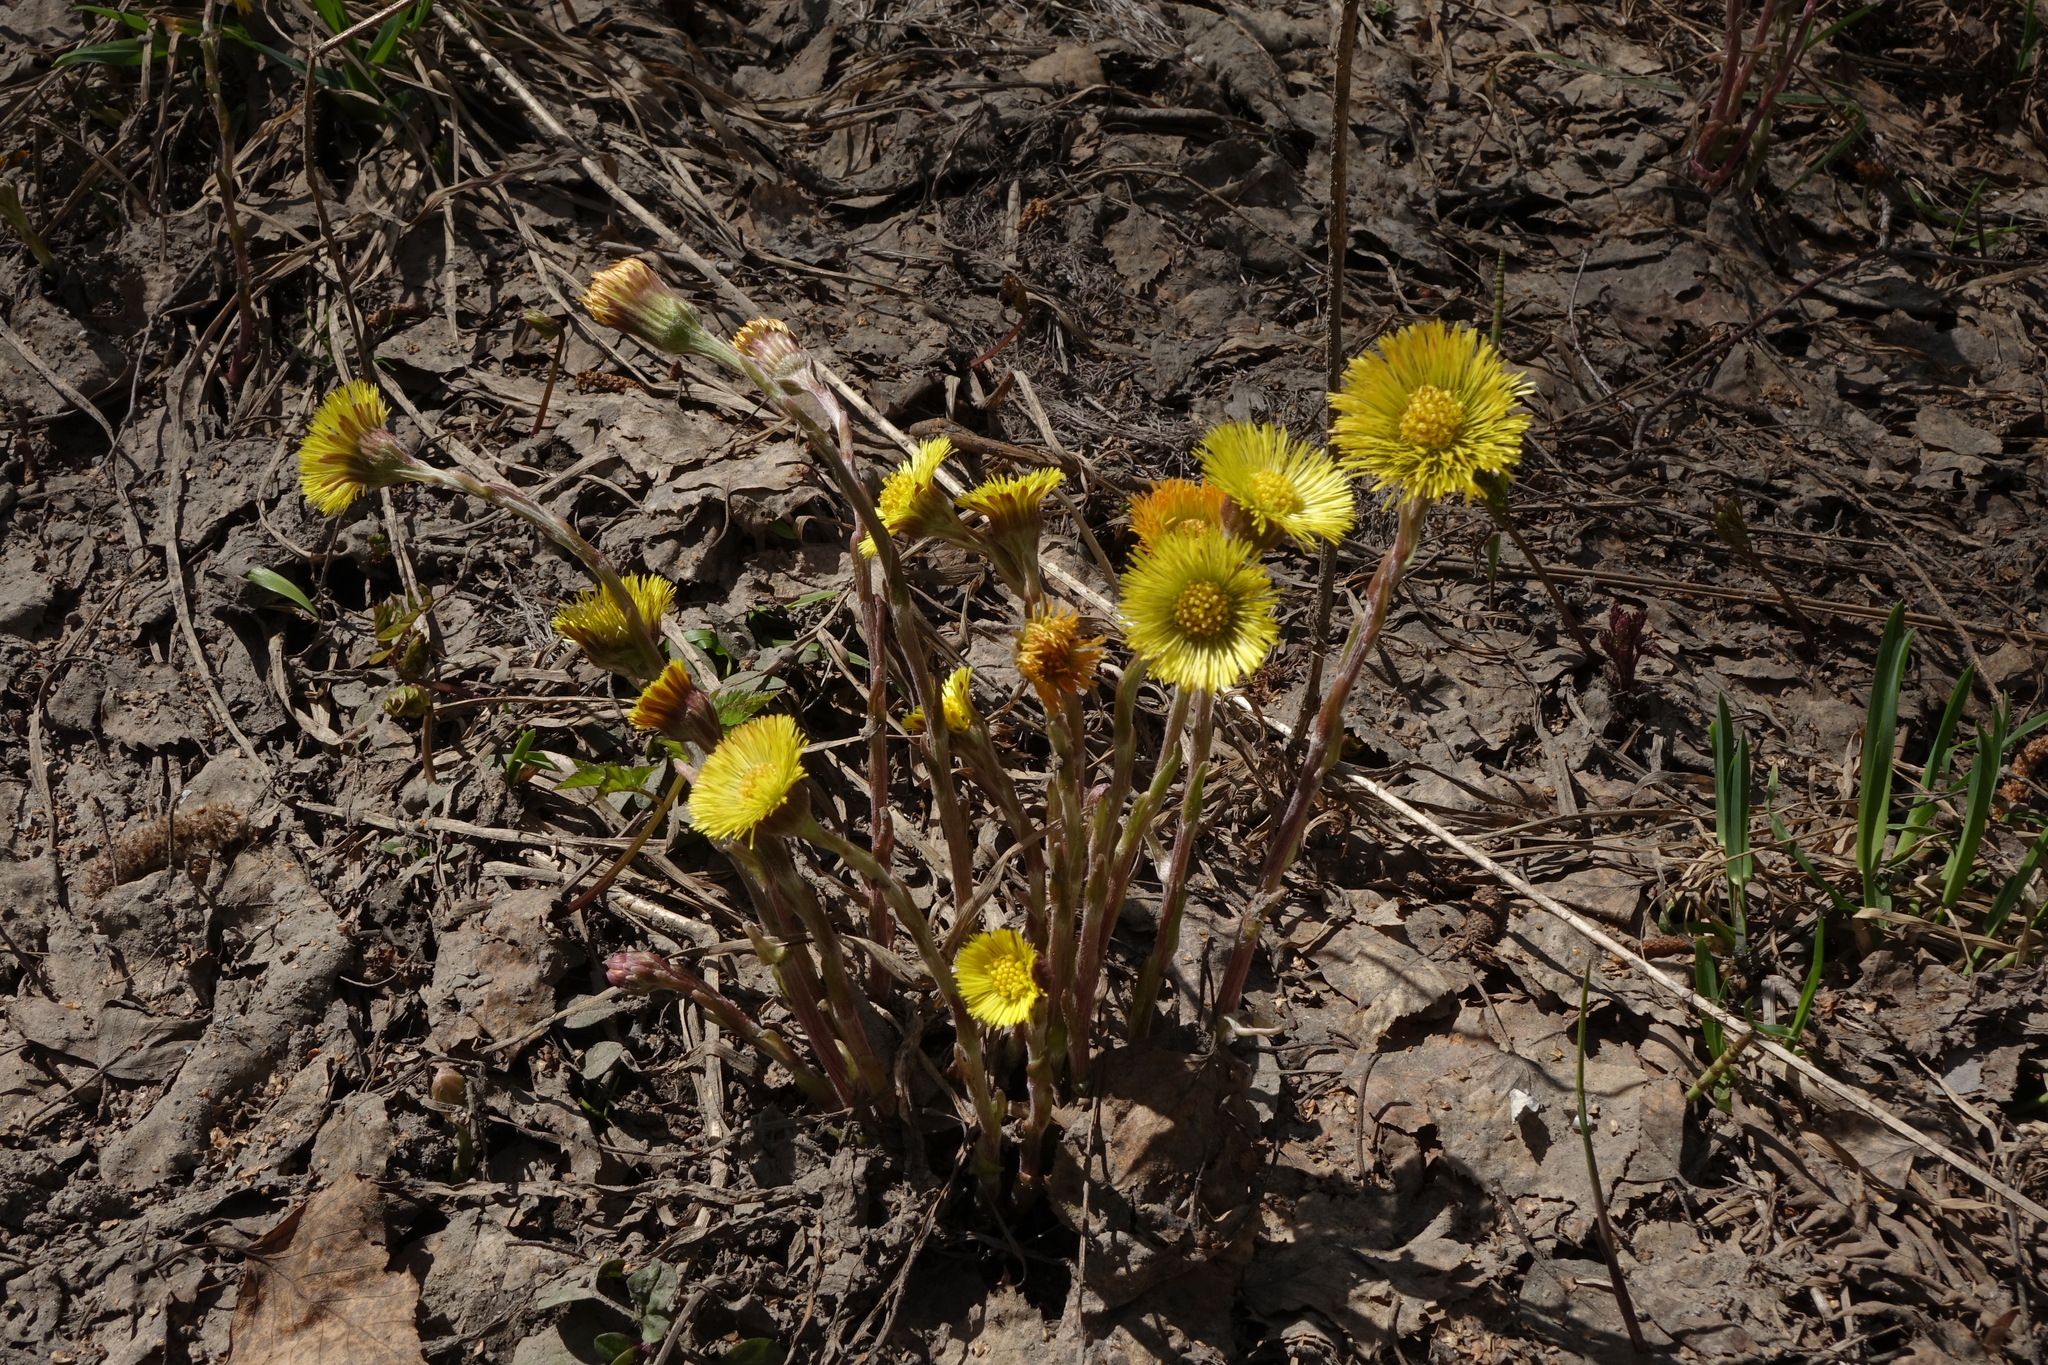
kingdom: Plantae
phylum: Tracheophyta
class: Magnoliopsida
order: Asterales
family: Asteraceae
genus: Tussilago
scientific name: Tussilago farfara
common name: Coltsfoot
